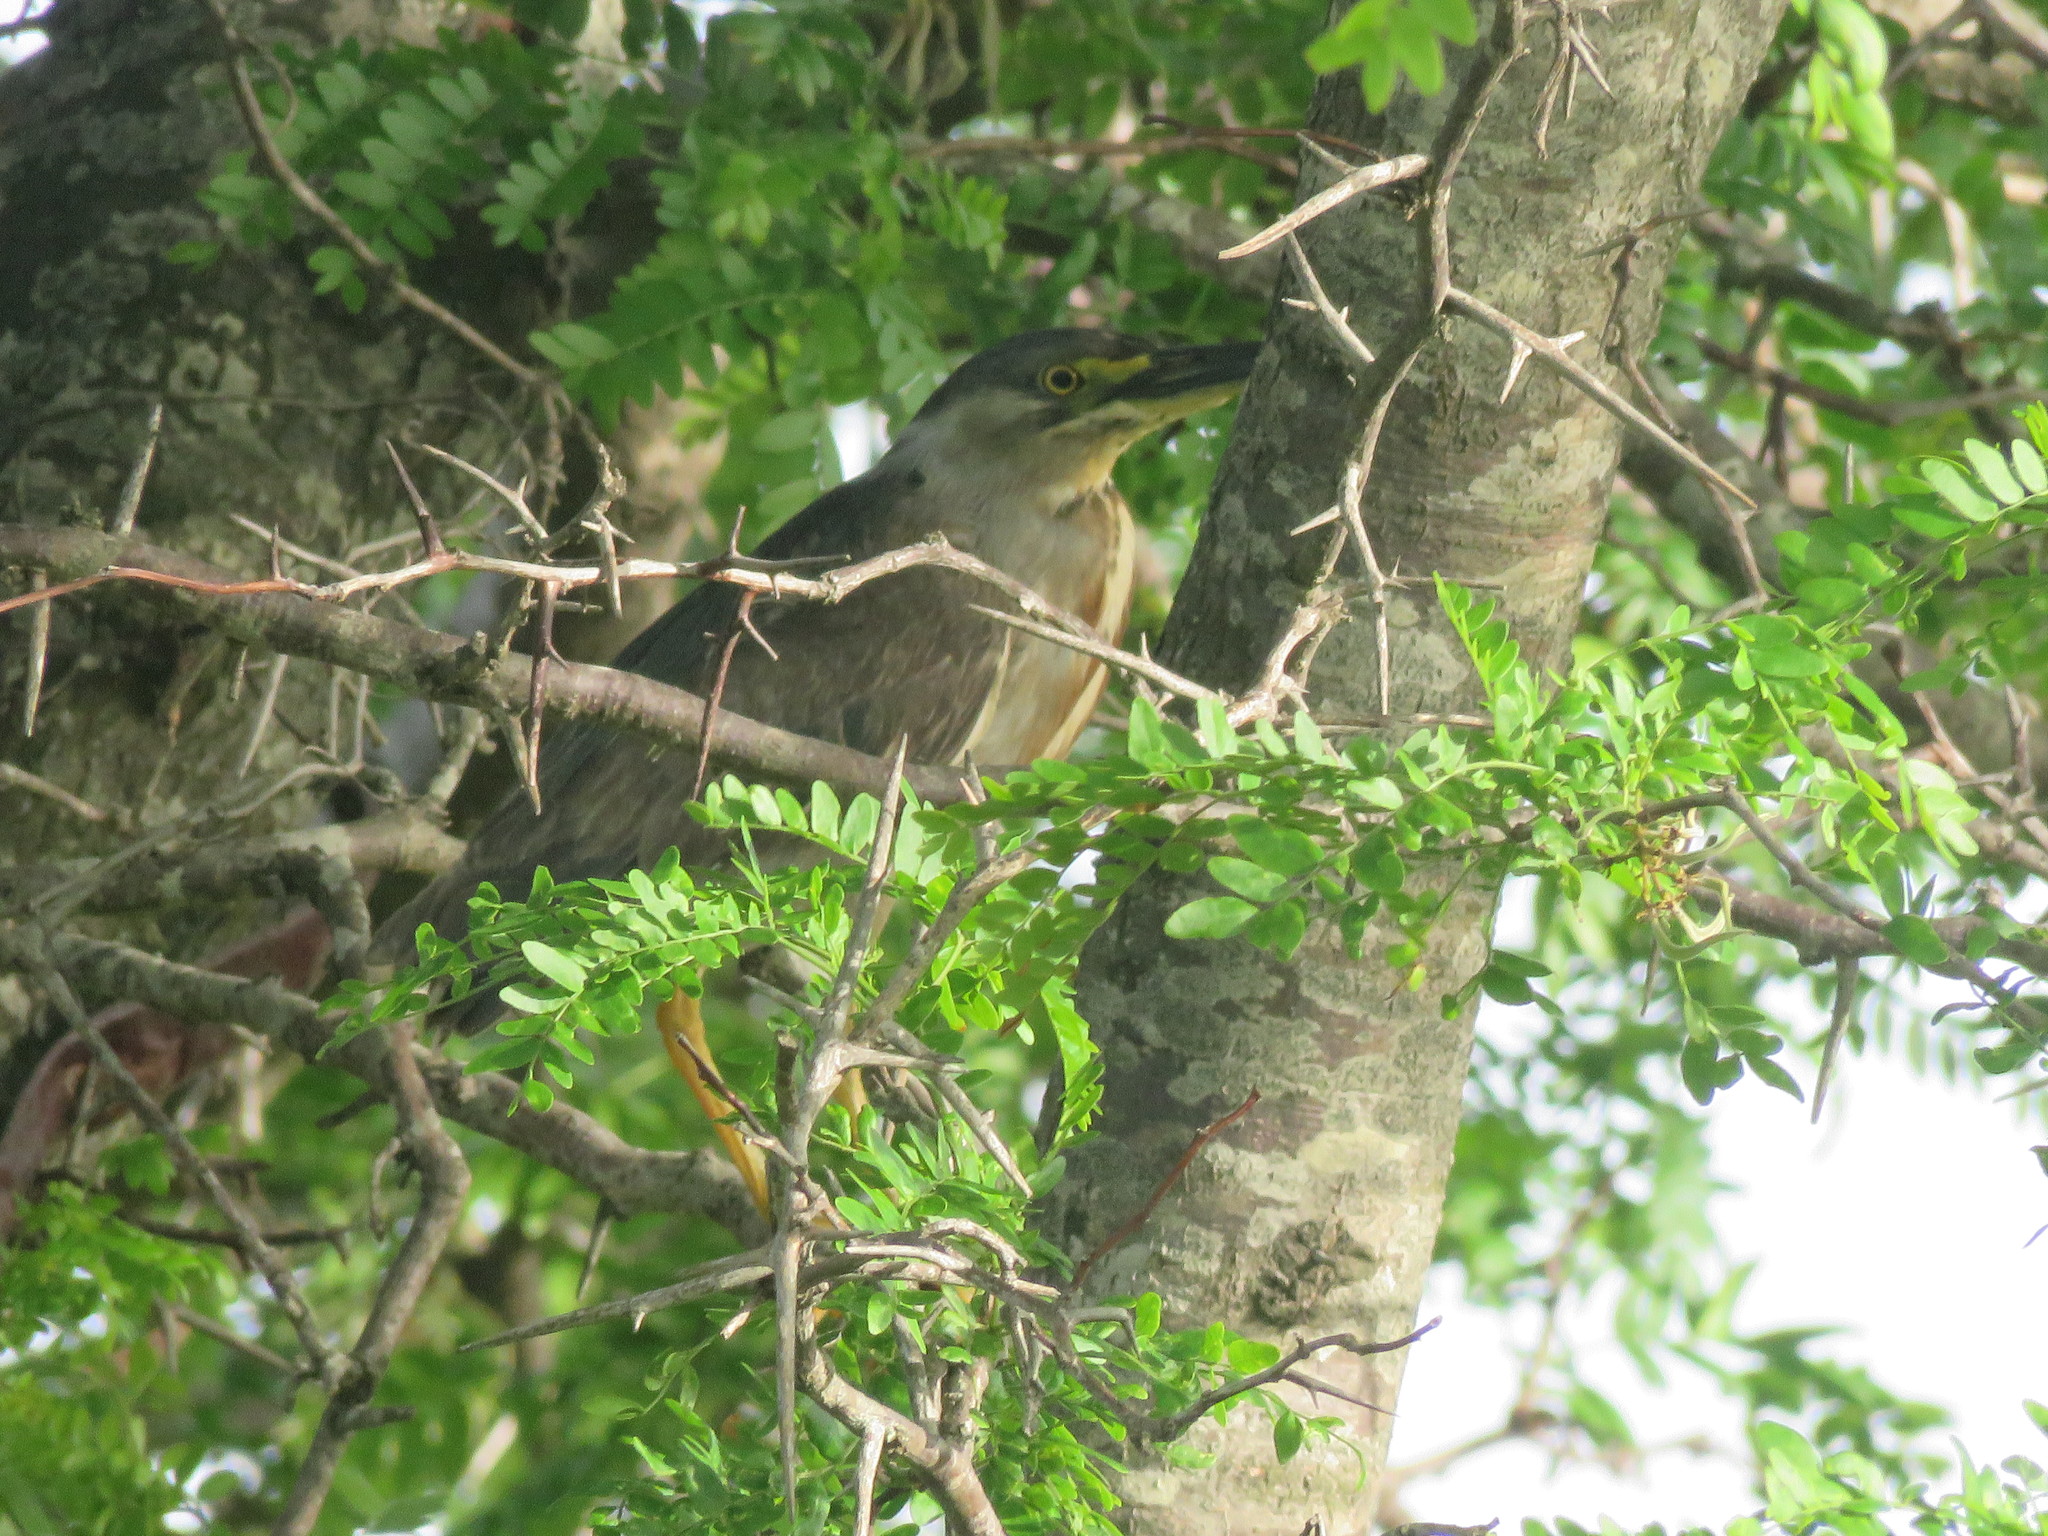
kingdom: Animalia
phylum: Chordata
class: Aves
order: Pelecaniformes
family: Ardeidae
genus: Butorides
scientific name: Butorides striata
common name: Striated heron
